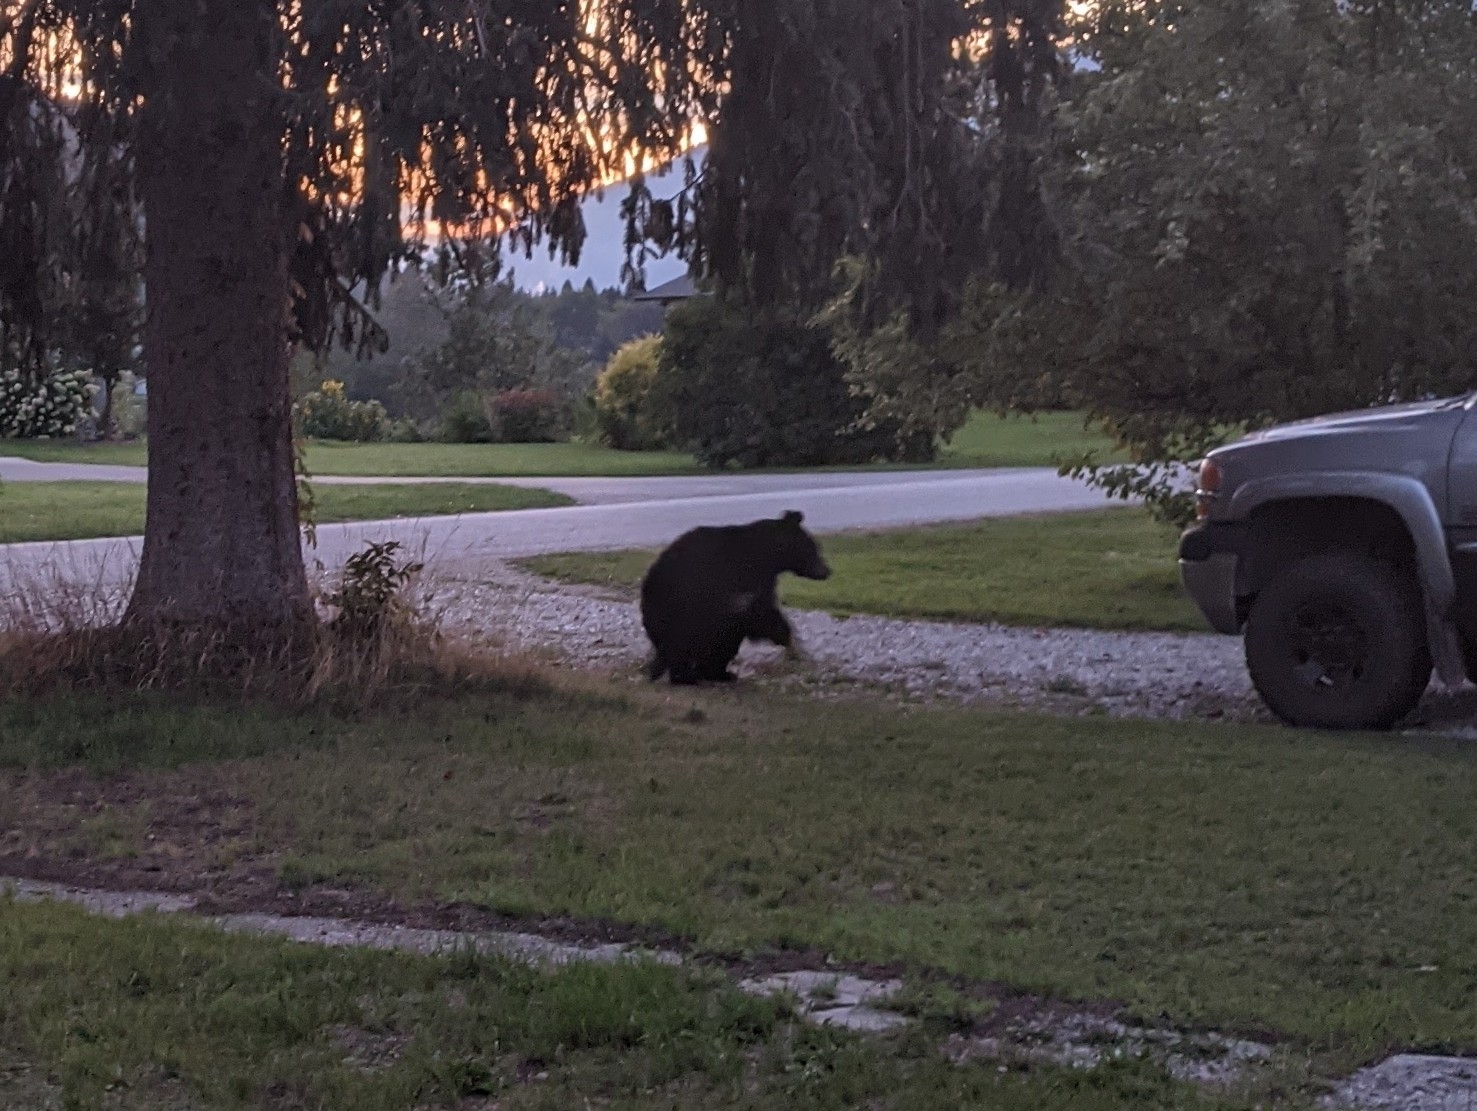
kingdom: Animalia
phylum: Chordata
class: Mammalia
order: Carnivora
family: Ursidae
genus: Ursus
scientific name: Ursus americanus
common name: American black bear
